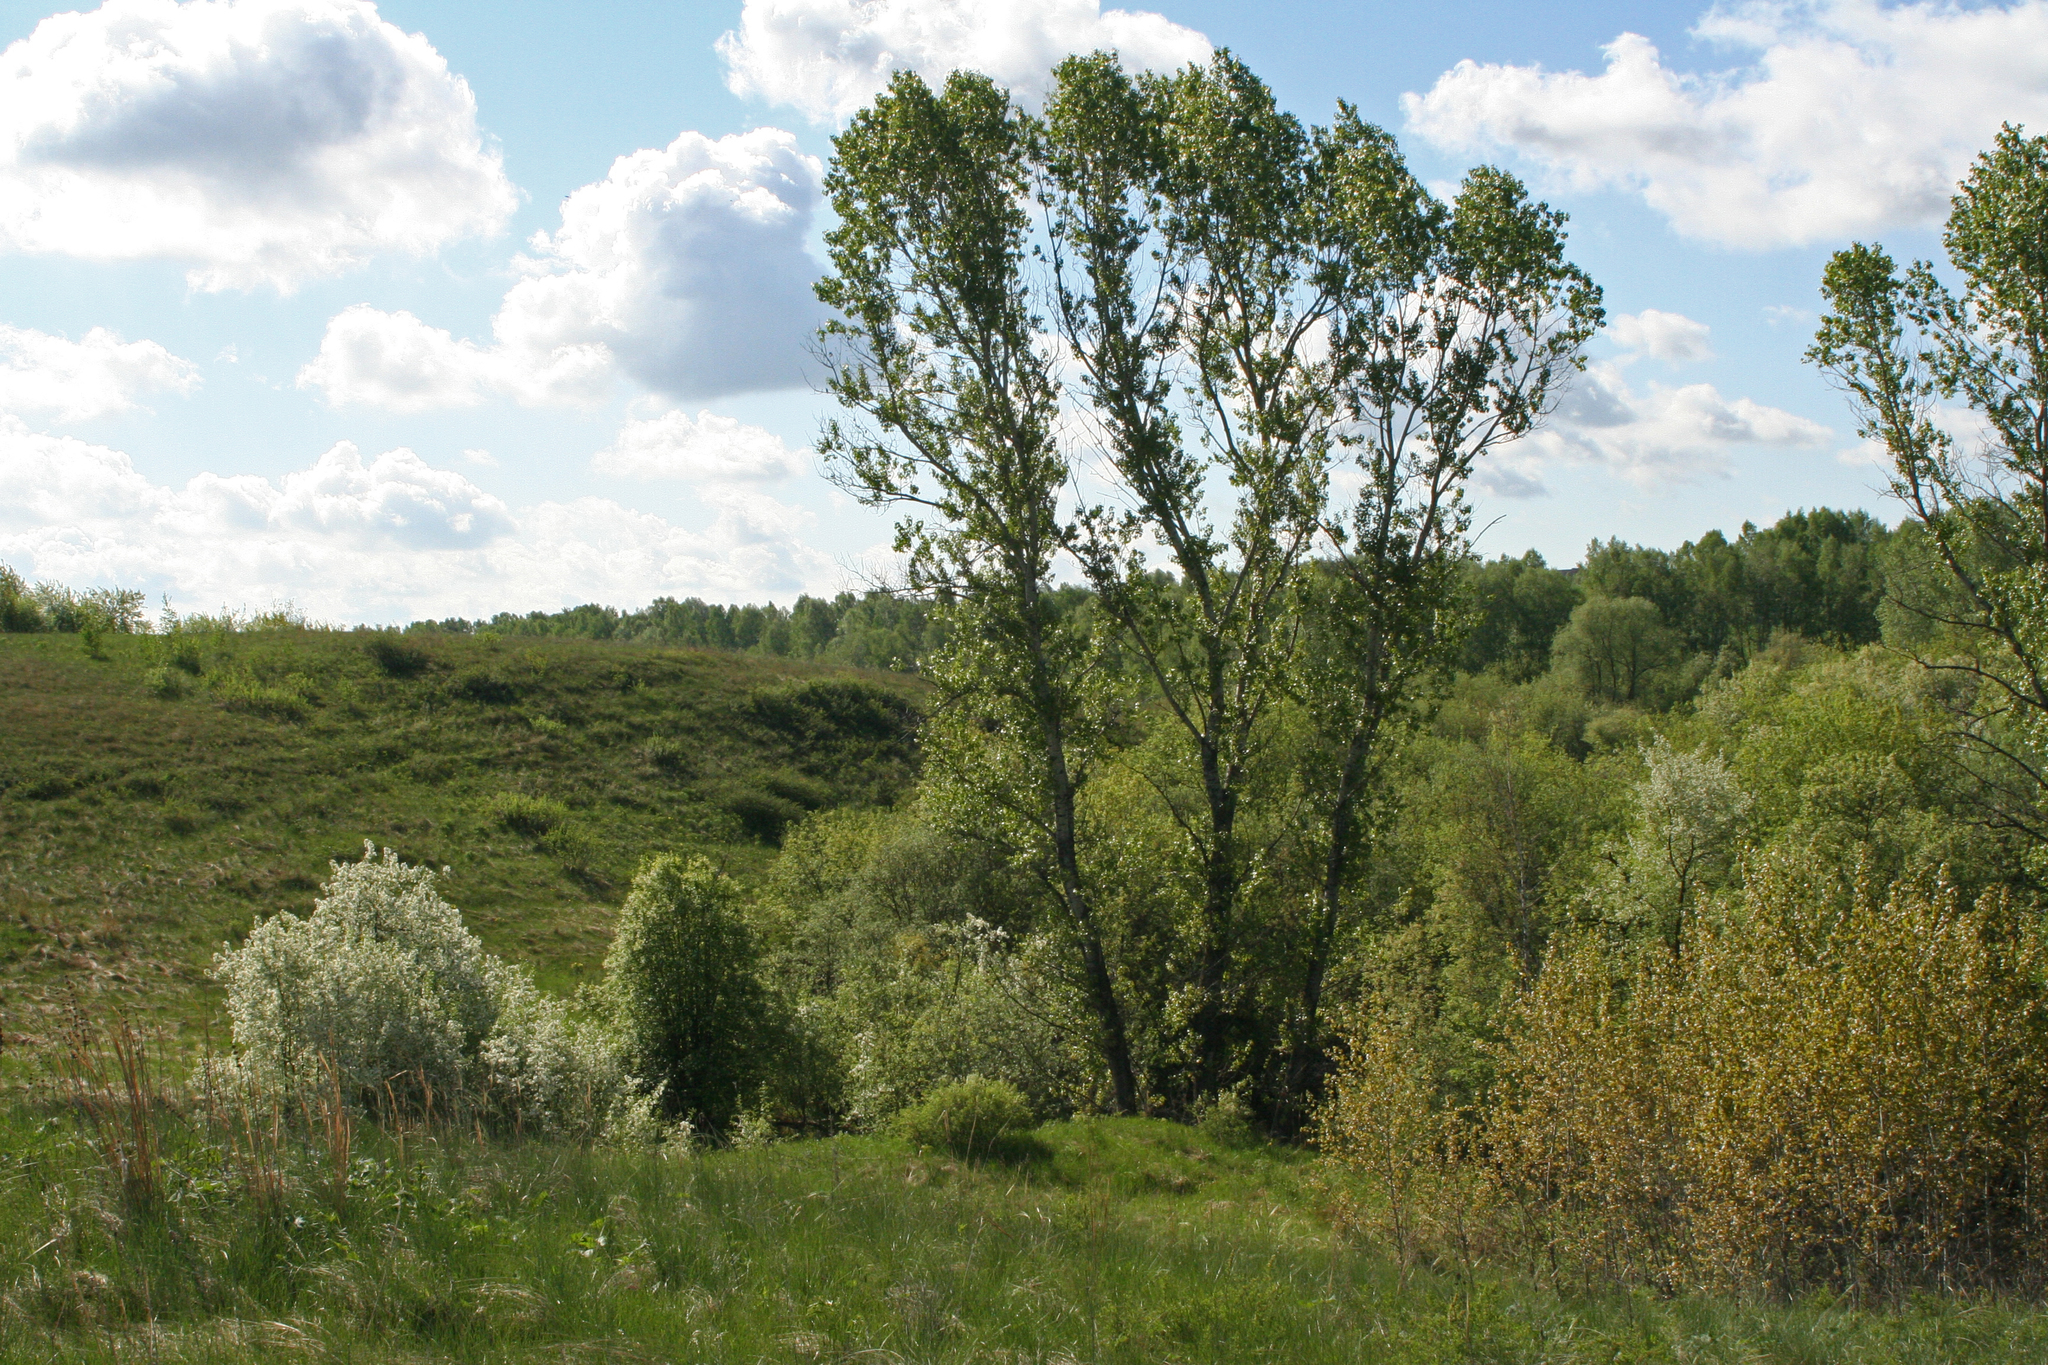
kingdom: Plantae
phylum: Tracheophyta
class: Magnoliopsida
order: Malpighiales
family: Salicaceae
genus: Populus
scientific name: Populus nigra
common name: Black poplar
